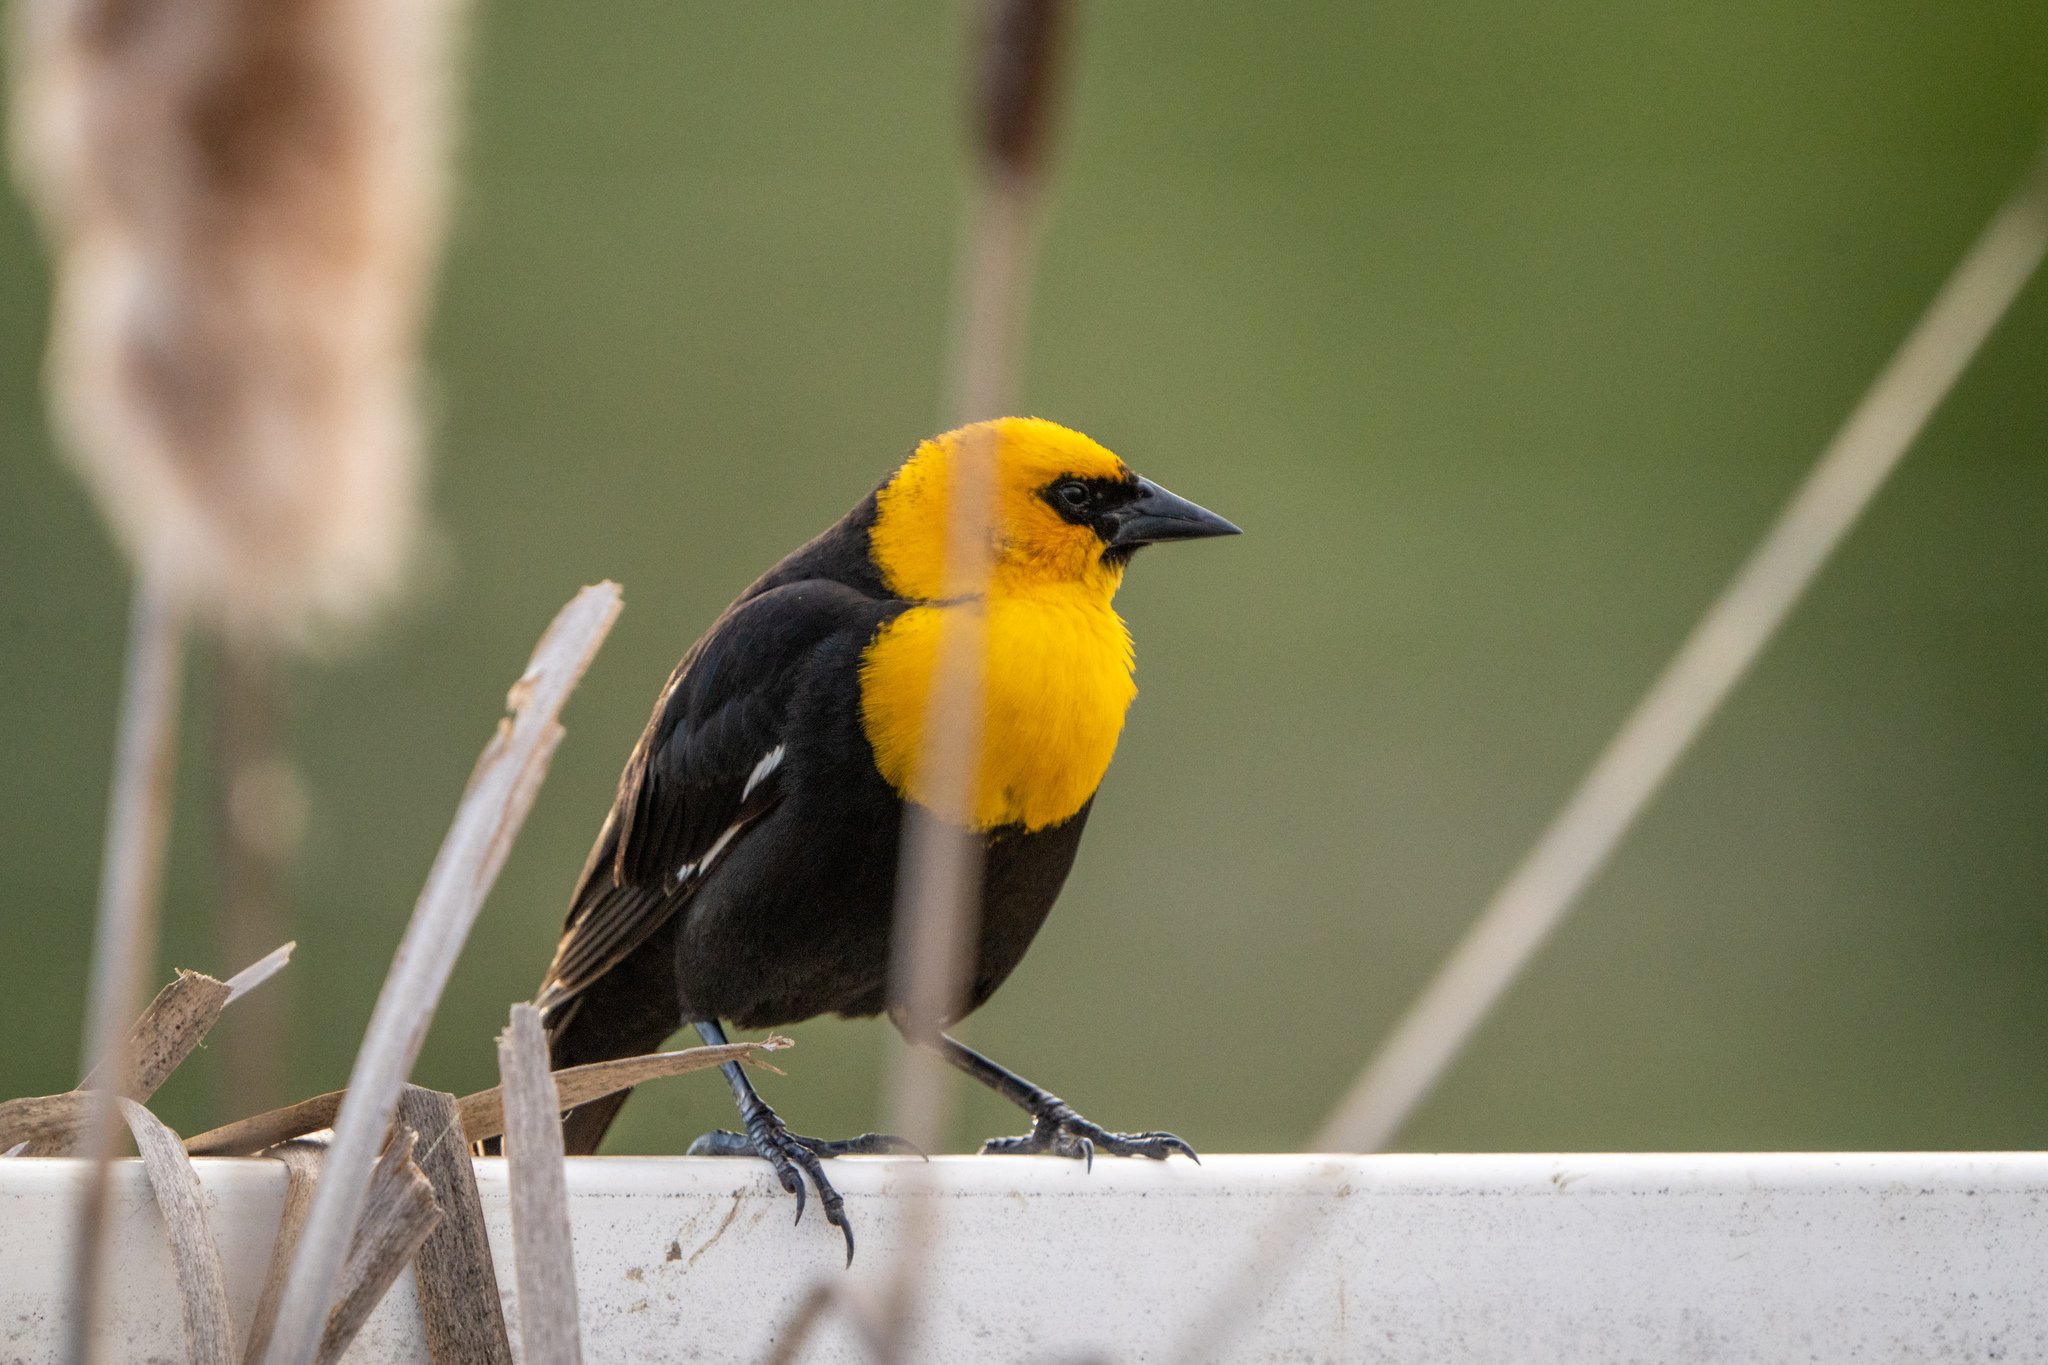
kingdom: Animalia
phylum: Chordata
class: Aves
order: Passeriformes
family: Icteridae
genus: Xanthocephalus
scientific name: Xanthocephalus xanthocephalus
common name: Yellow-headed blackbird
